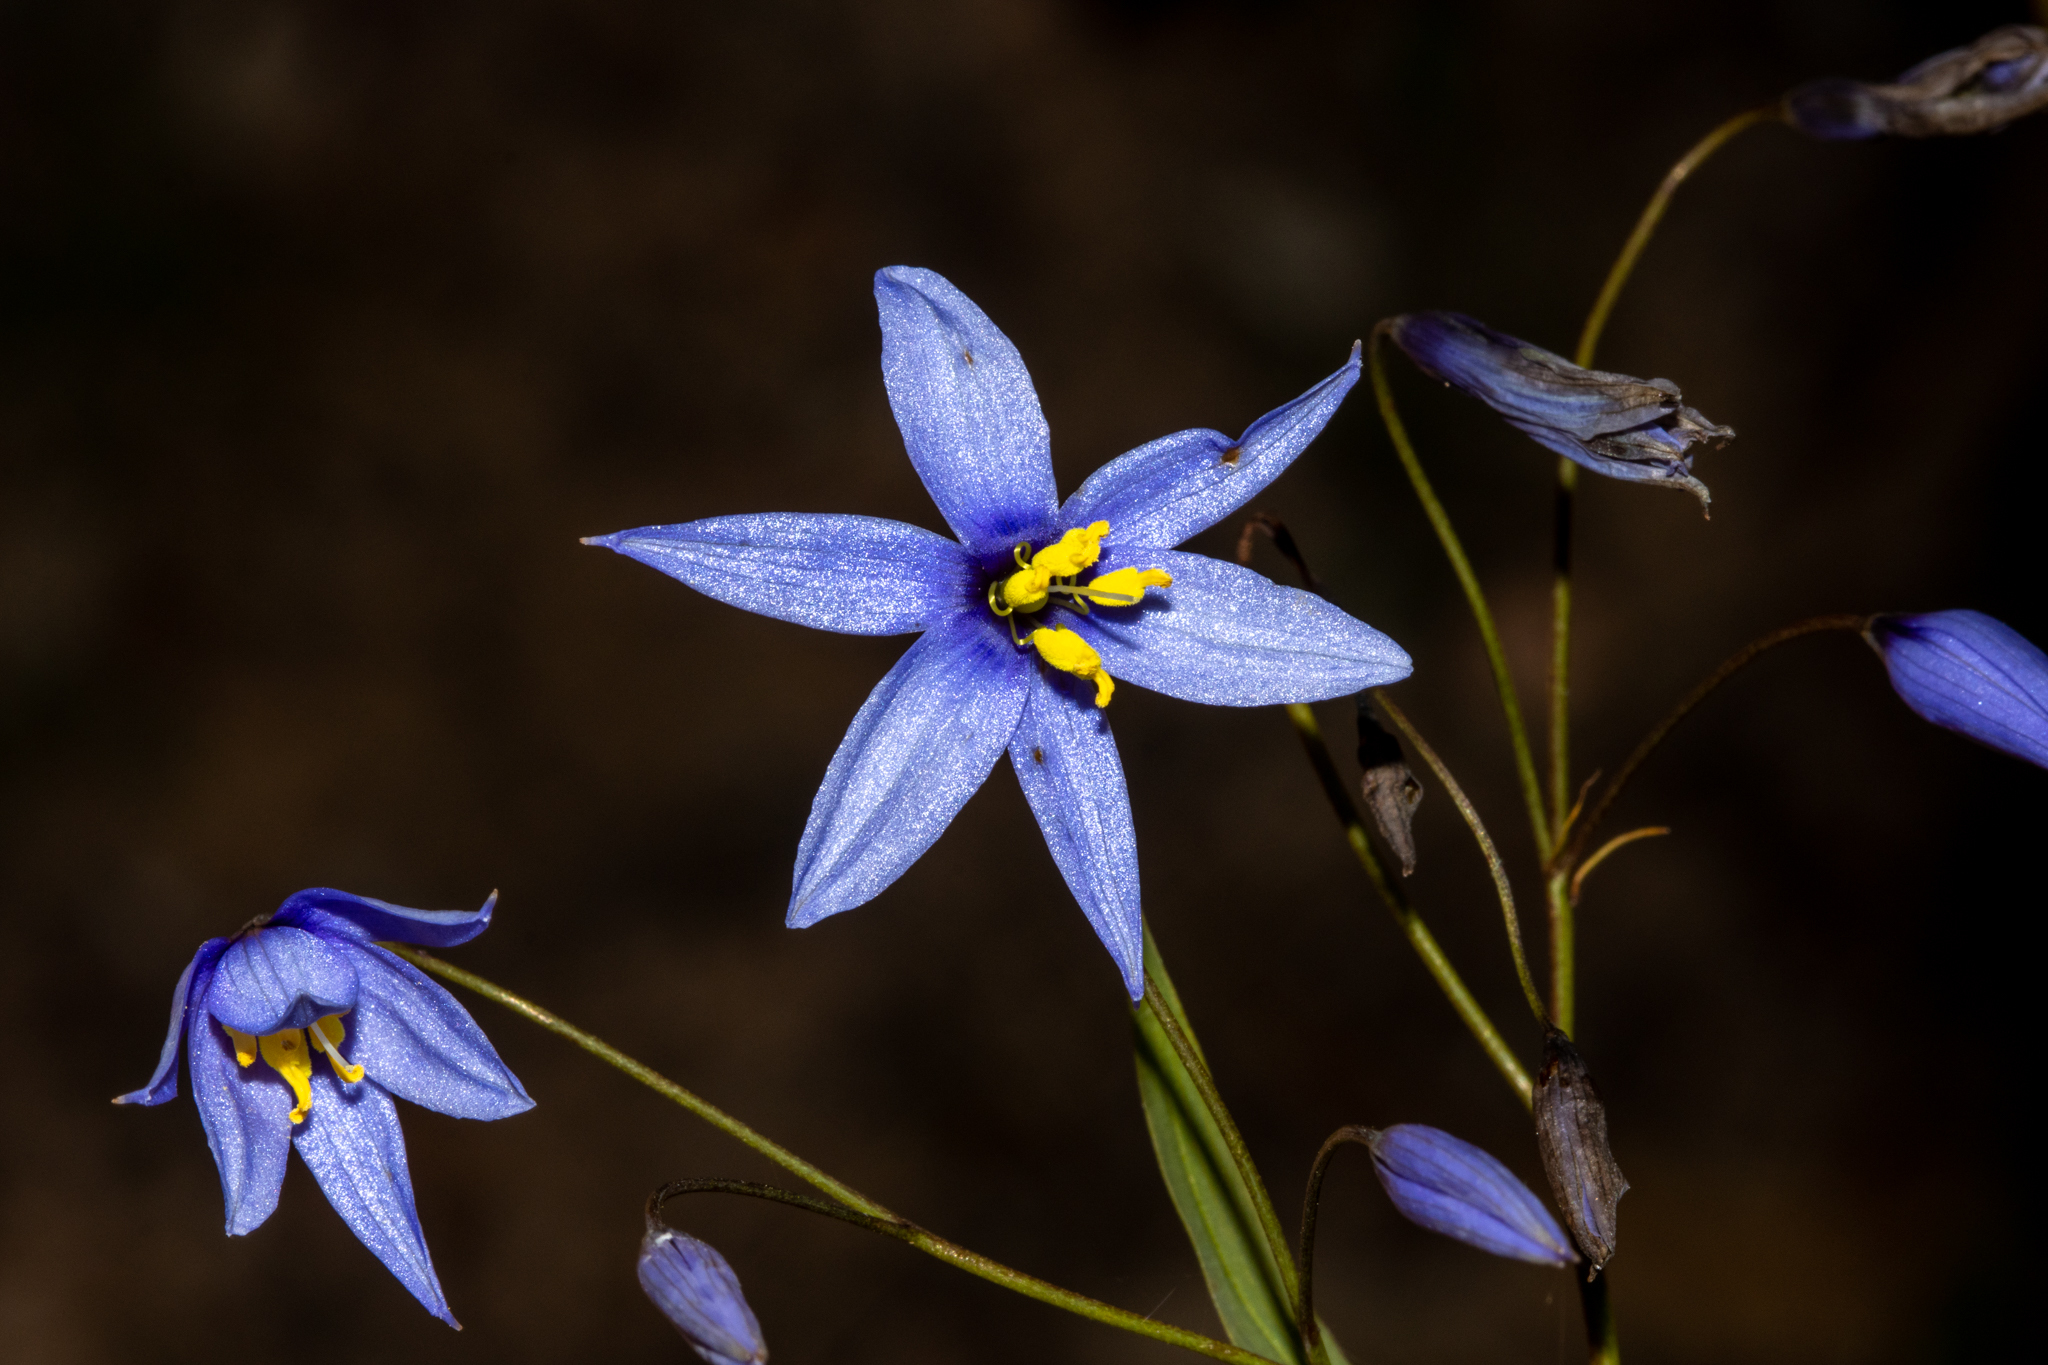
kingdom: Plantae
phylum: Tracheophyta
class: Liliopsida
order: Asparagales
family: Asphodelaceae
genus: Stypandra
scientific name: Stypandra glauca
